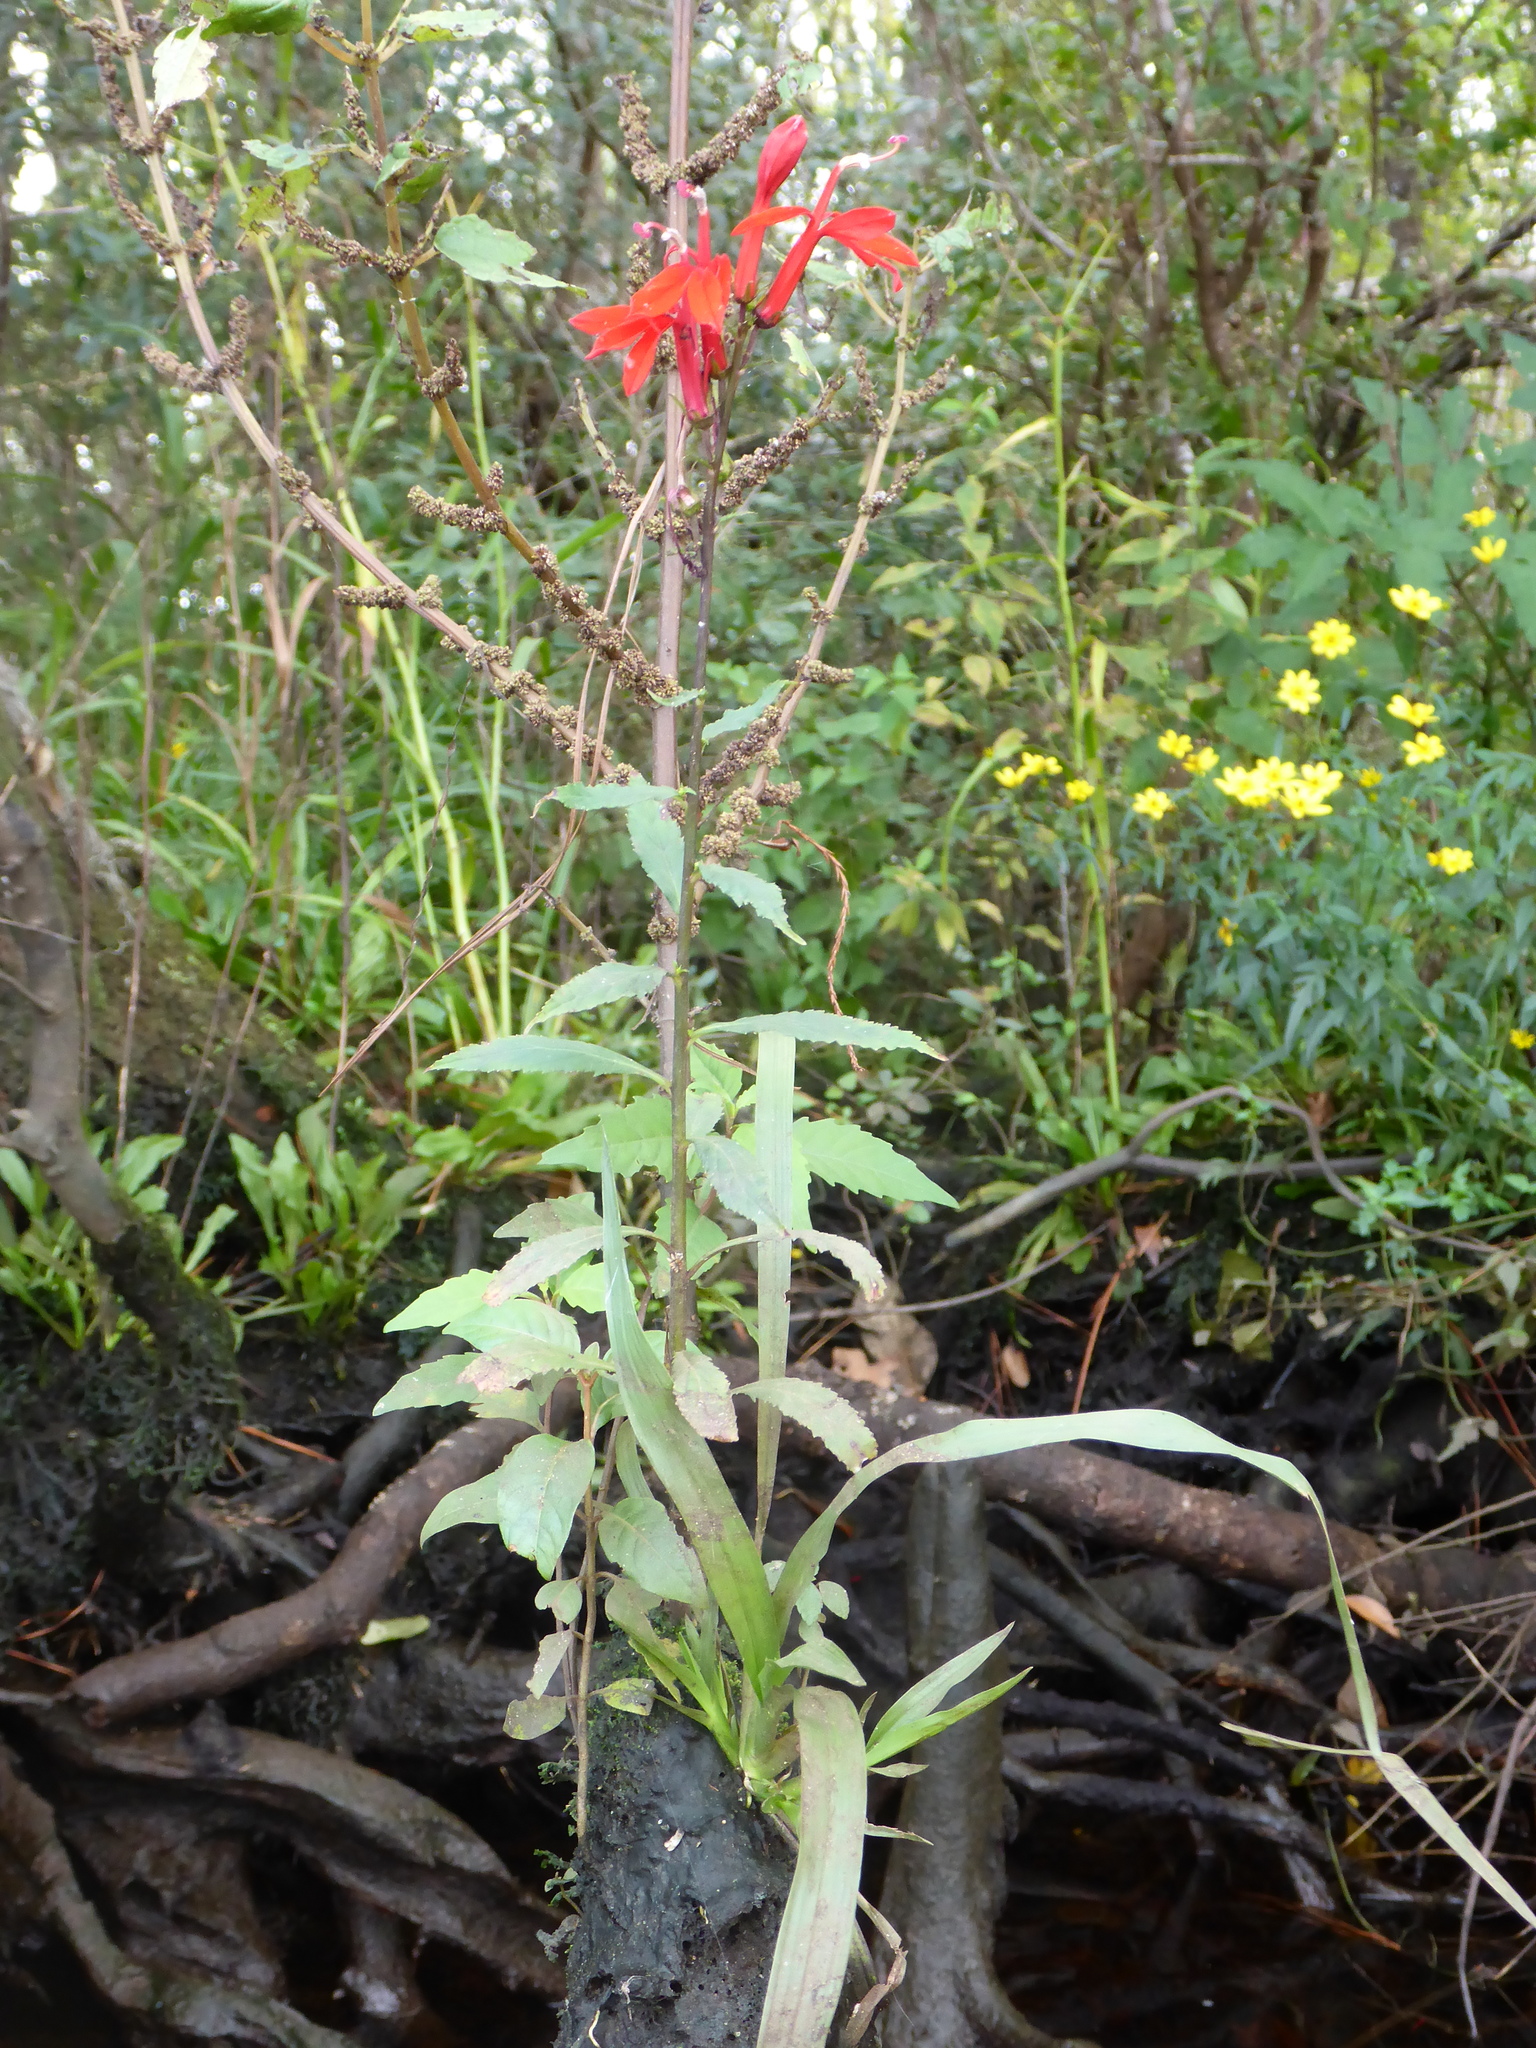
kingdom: Plantae
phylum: Tracheophyta
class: Magnoliopsida
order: Asterales
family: Campanulaceae
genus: Lobelia
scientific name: Lobelia cardinalis
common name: Cardinal flower
